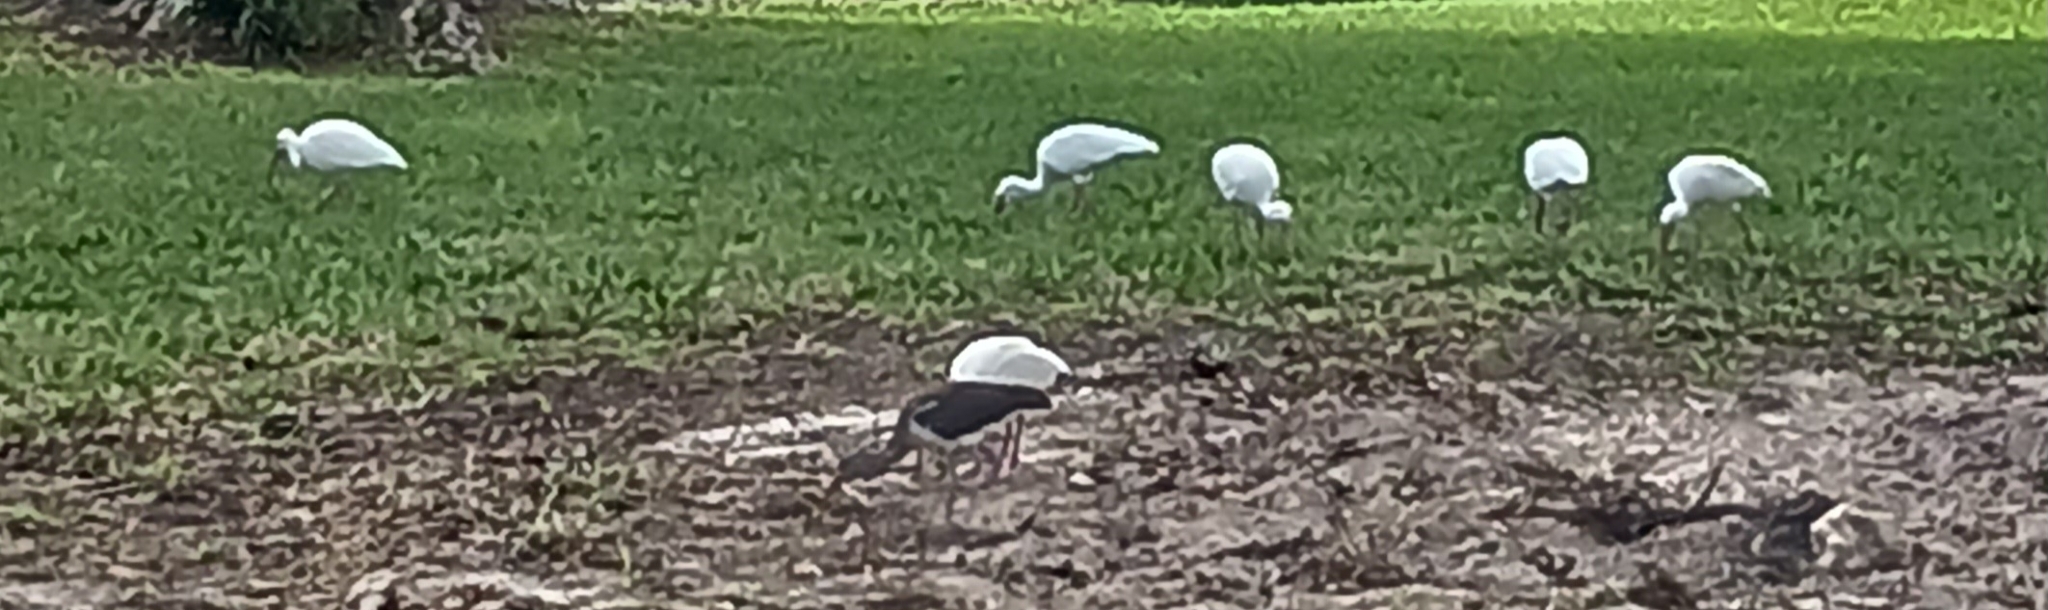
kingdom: Animalia
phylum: Chordata
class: Aves
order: Pelecaniformes
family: Threskiornithidae
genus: Eudocimus
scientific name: Eudocimus albus
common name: White ibis
